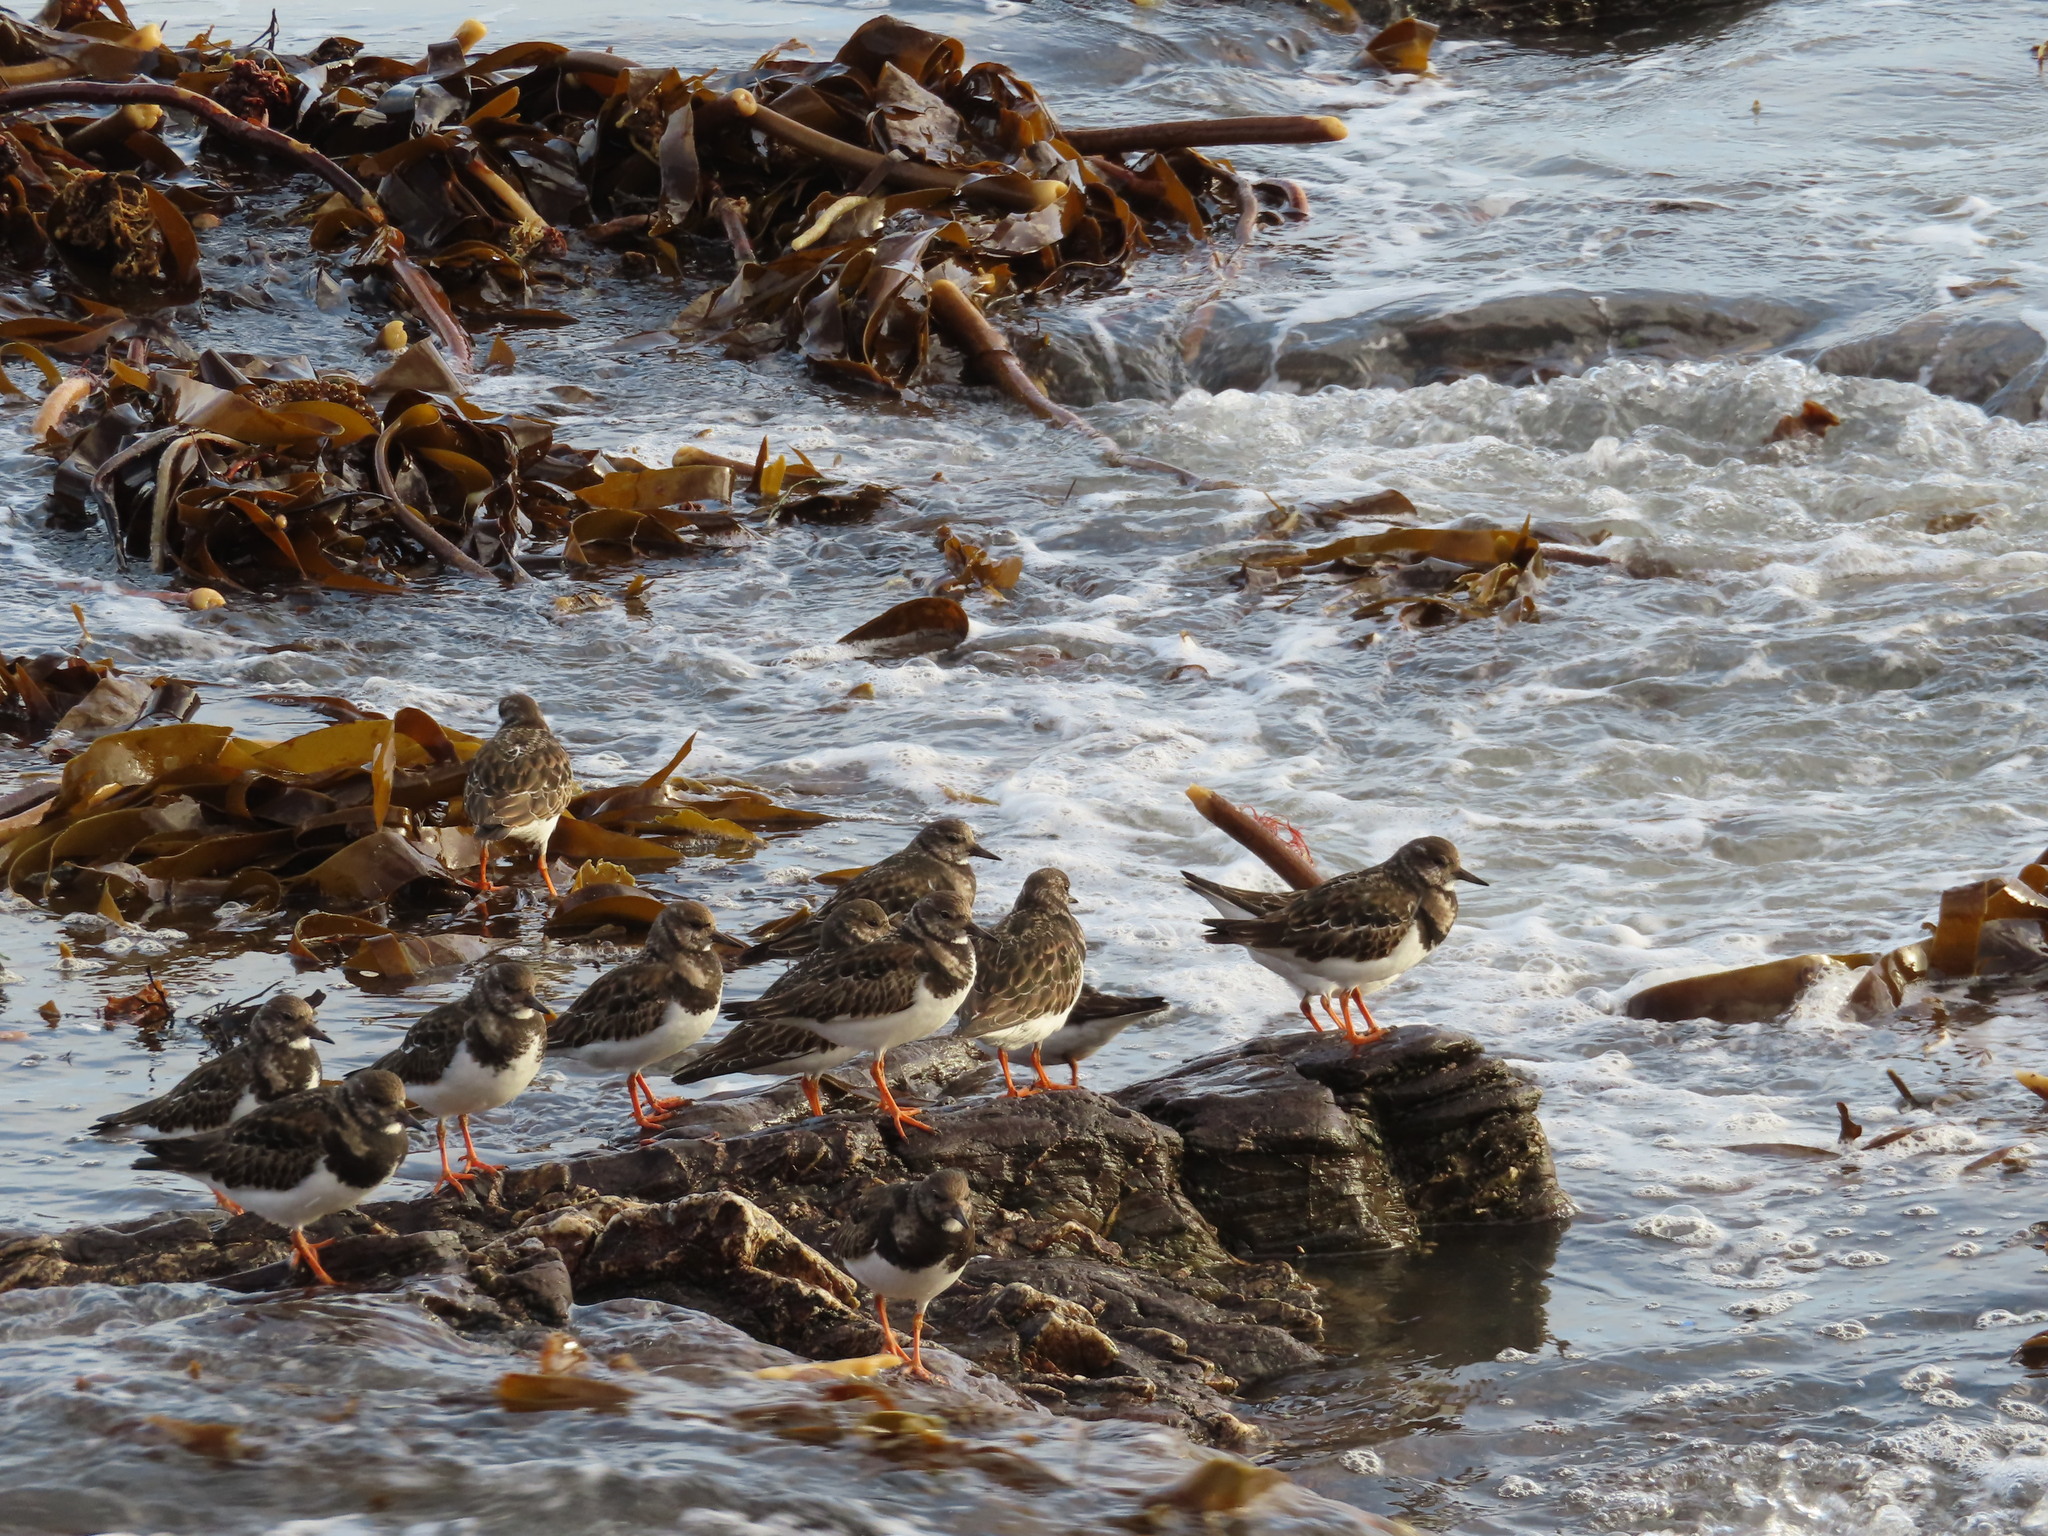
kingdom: Animalia
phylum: Chordata
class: Aves
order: Charadriiformes
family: Scolopacidae
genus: Arenaria
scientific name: Arenaria interpres
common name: Ruddy turnstone
